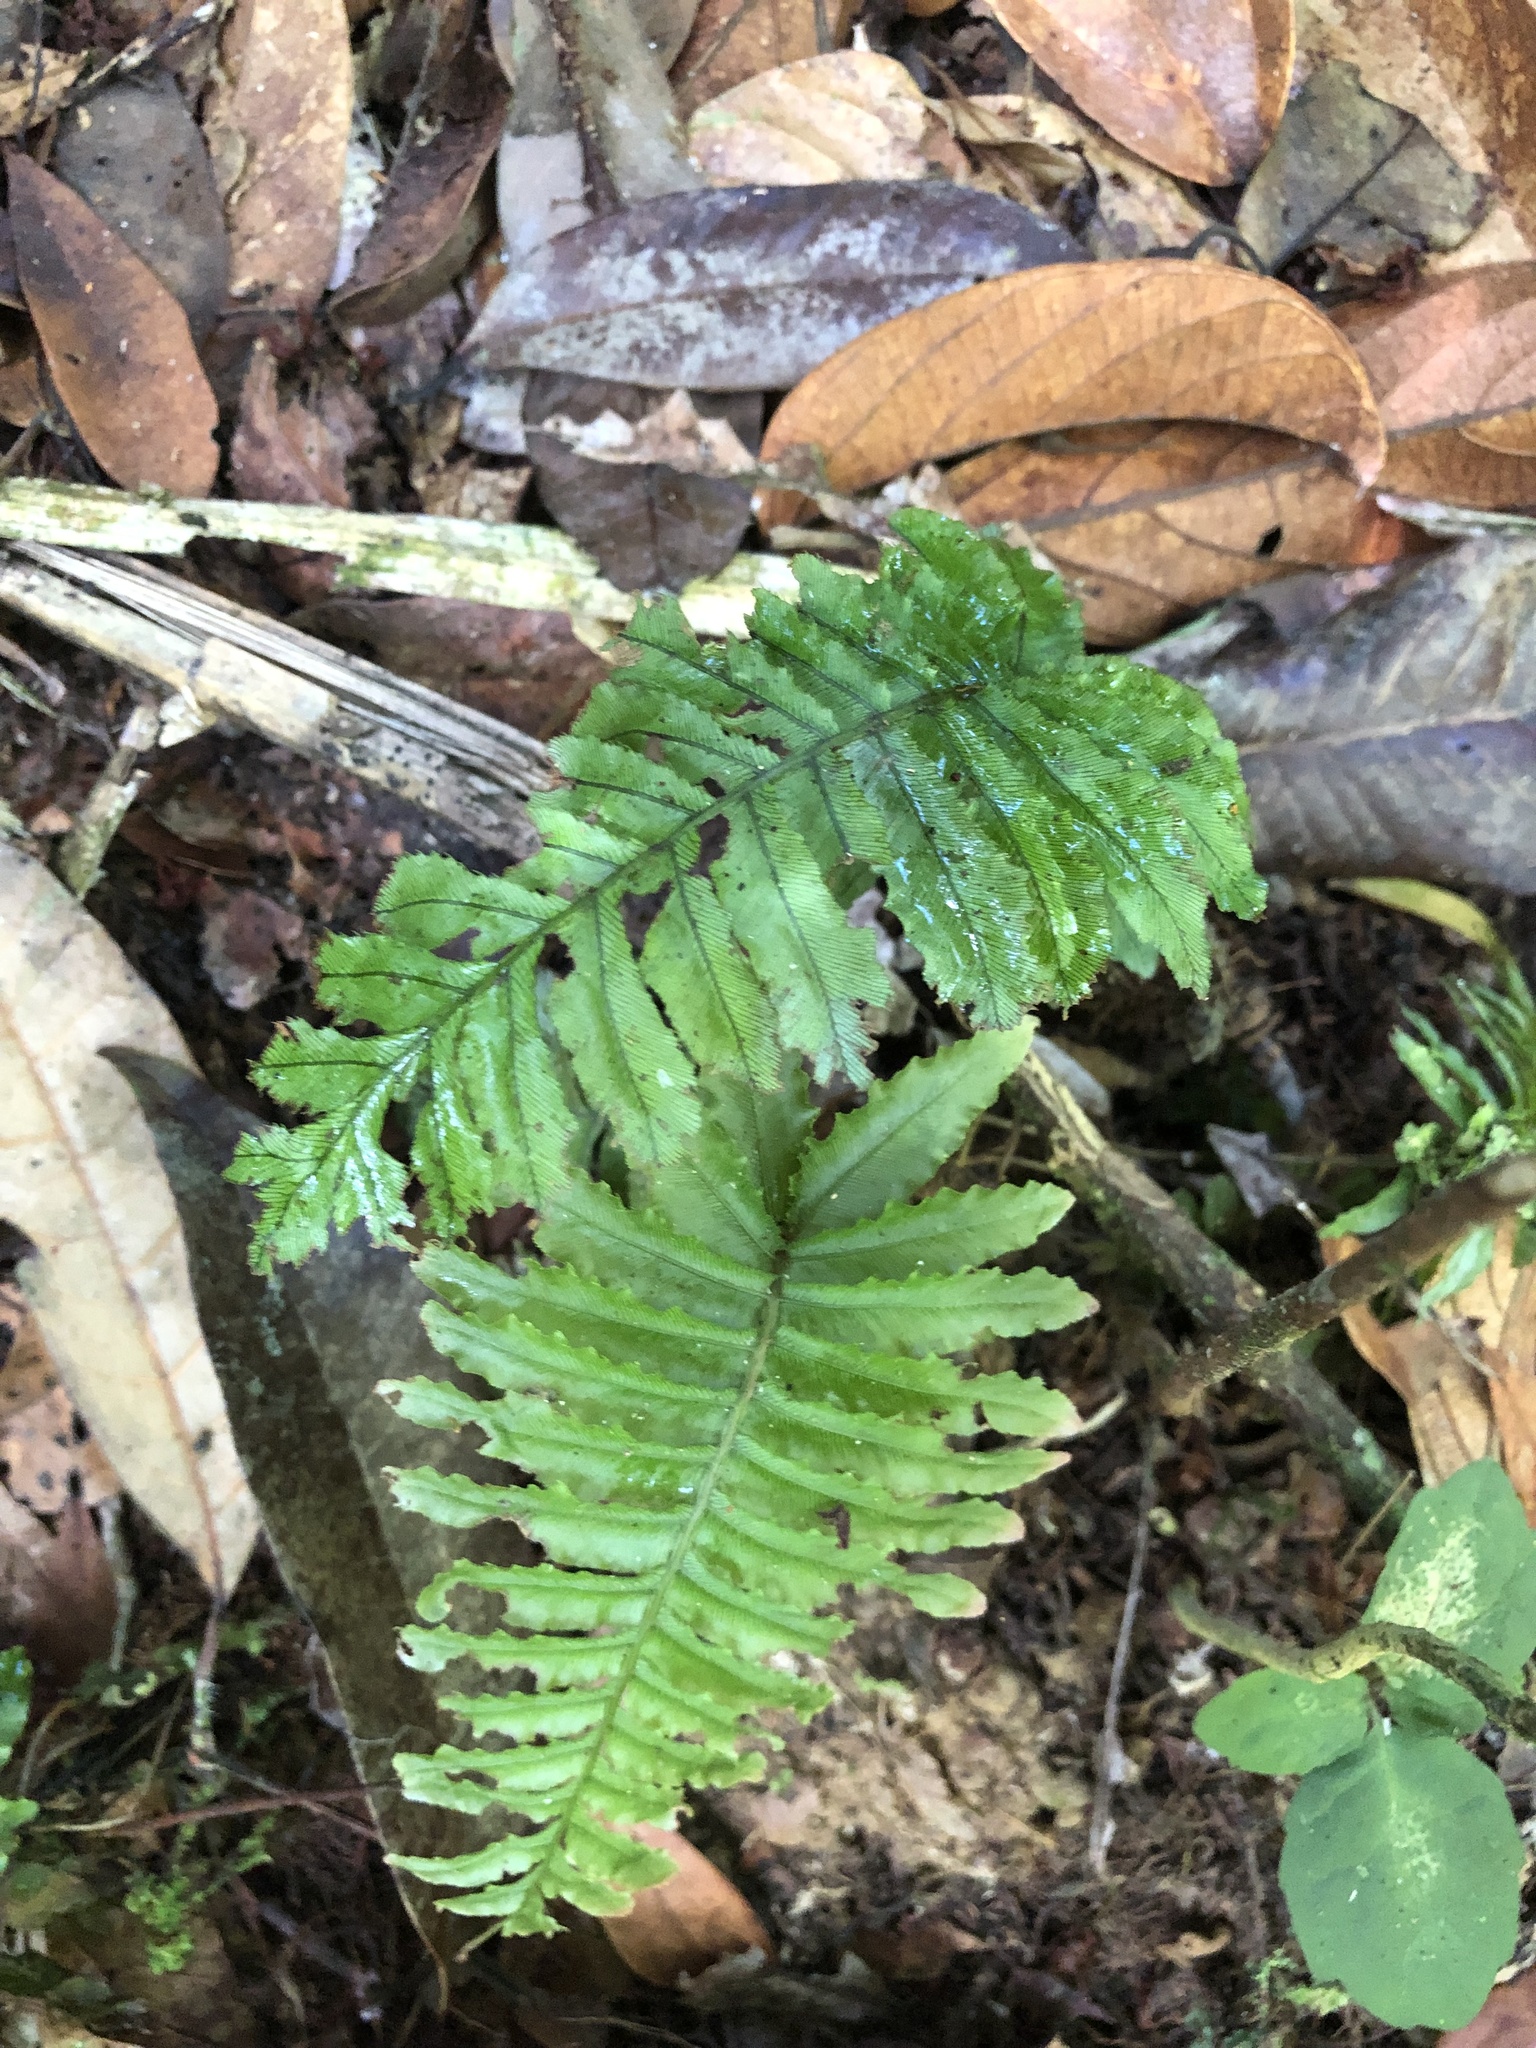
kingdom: Plantae
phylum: Tracheophyta
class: Polypodiopsida
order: Hymenophyllales
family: Hymenophyllaceae
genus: Trichomanes
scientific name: Trichomanes pinnatum
